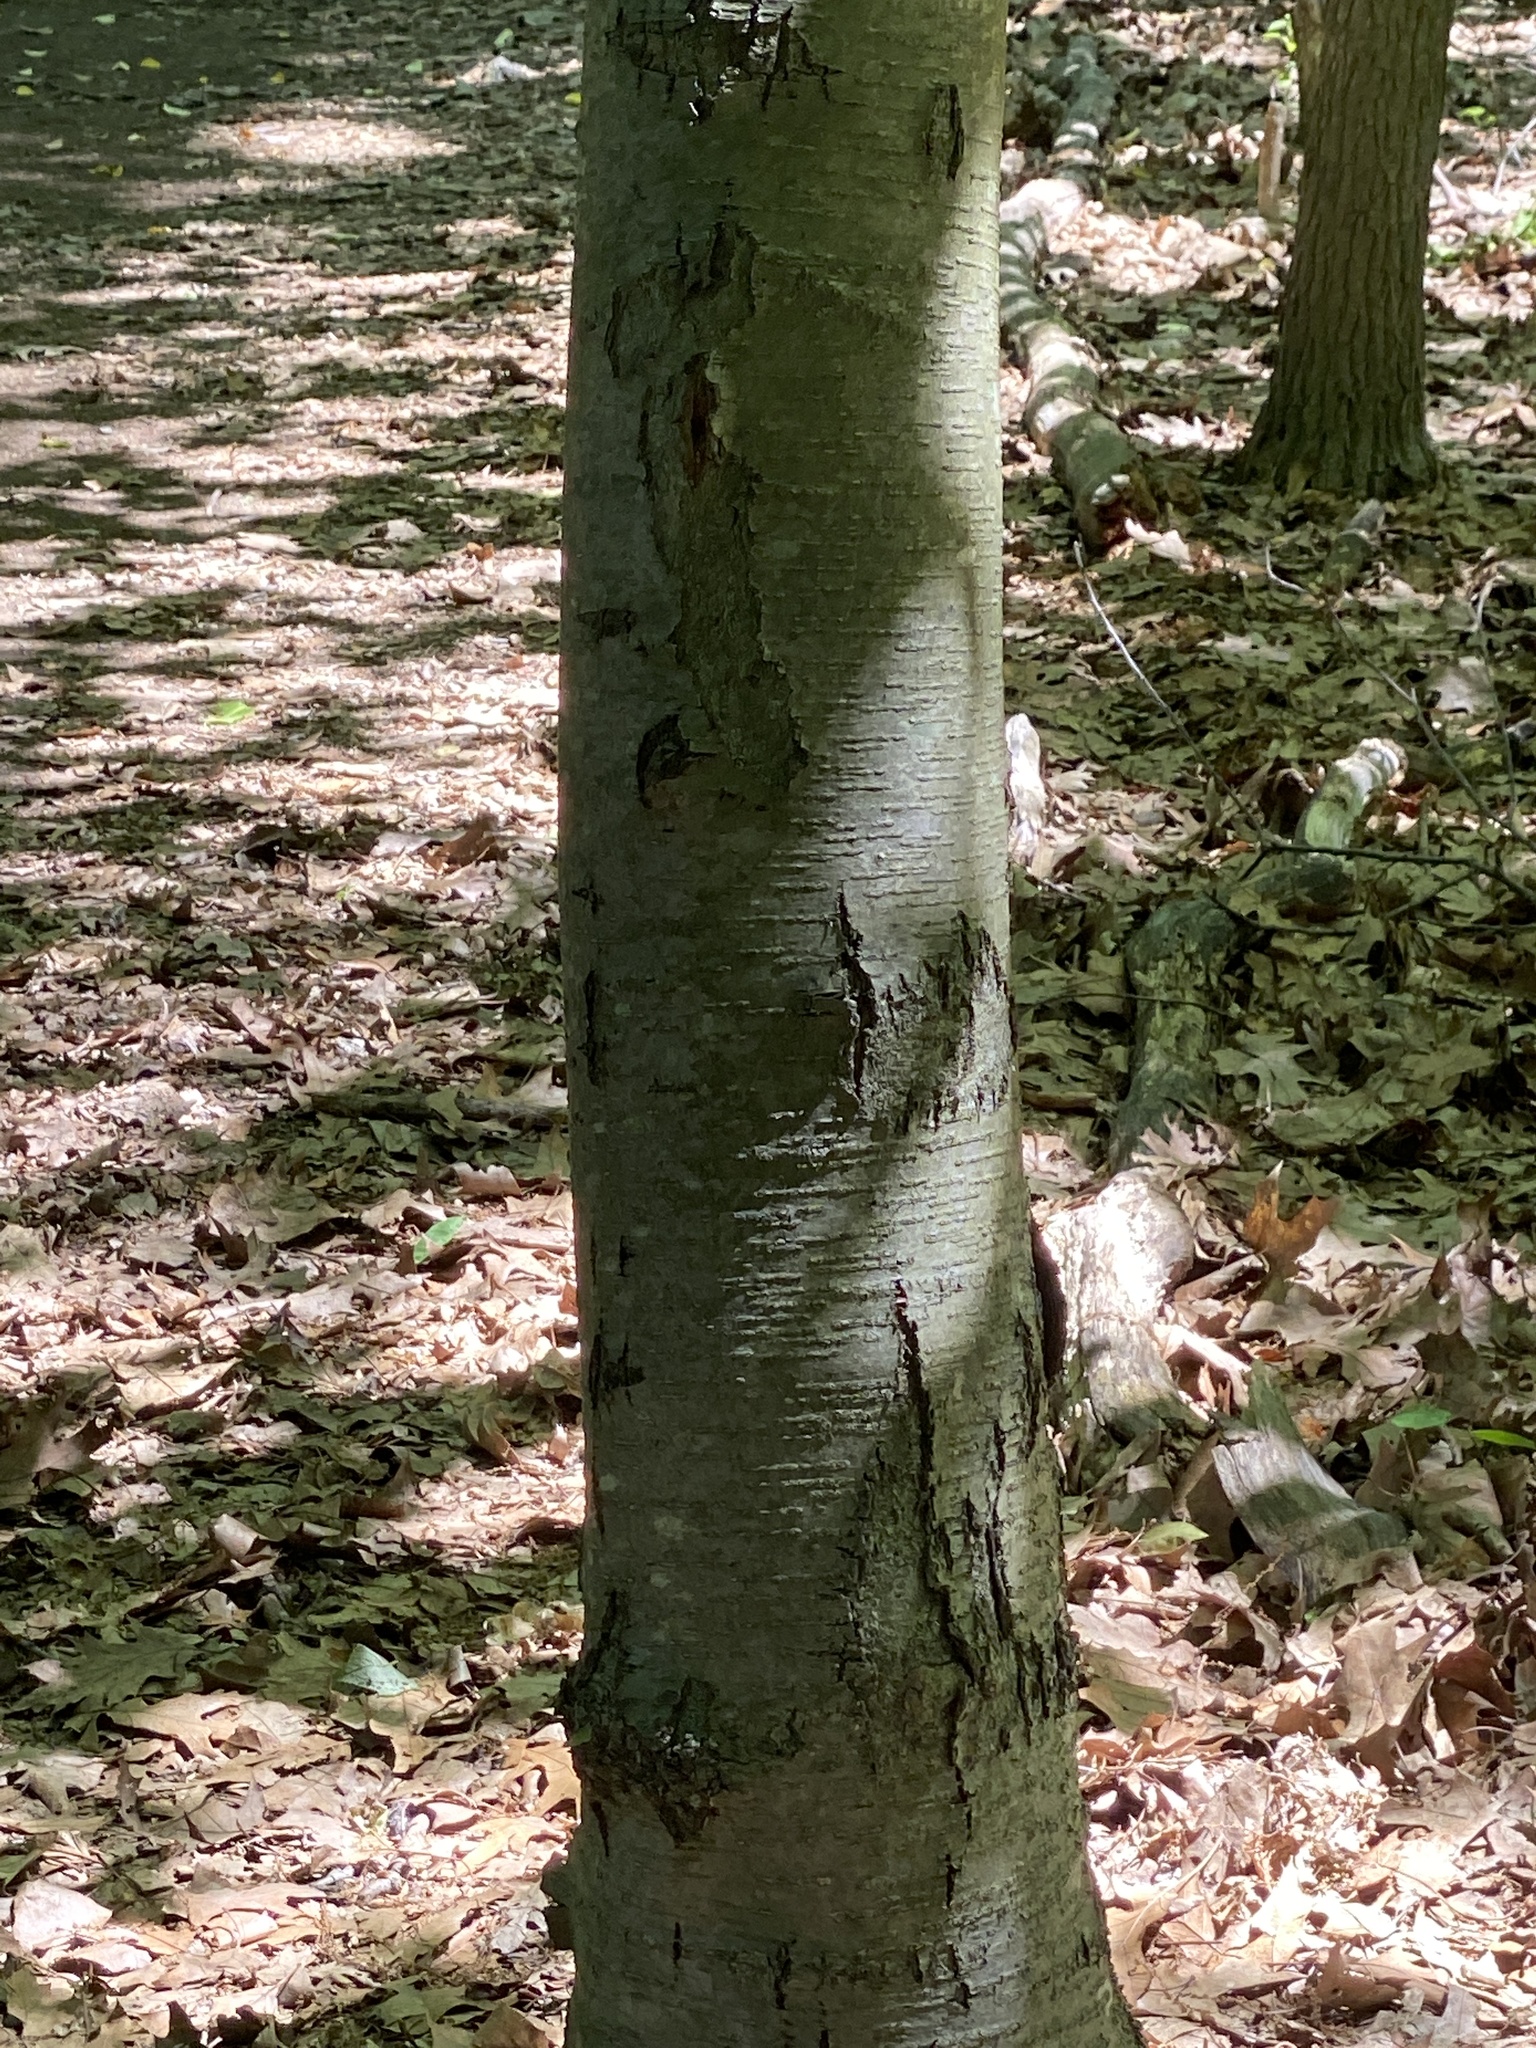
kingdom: Plantae
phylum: Tracheophyta
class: Magnoliopsida
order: Fagales
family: Betulaceae
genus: Betula
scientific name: Betula lenta
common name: Black birch
